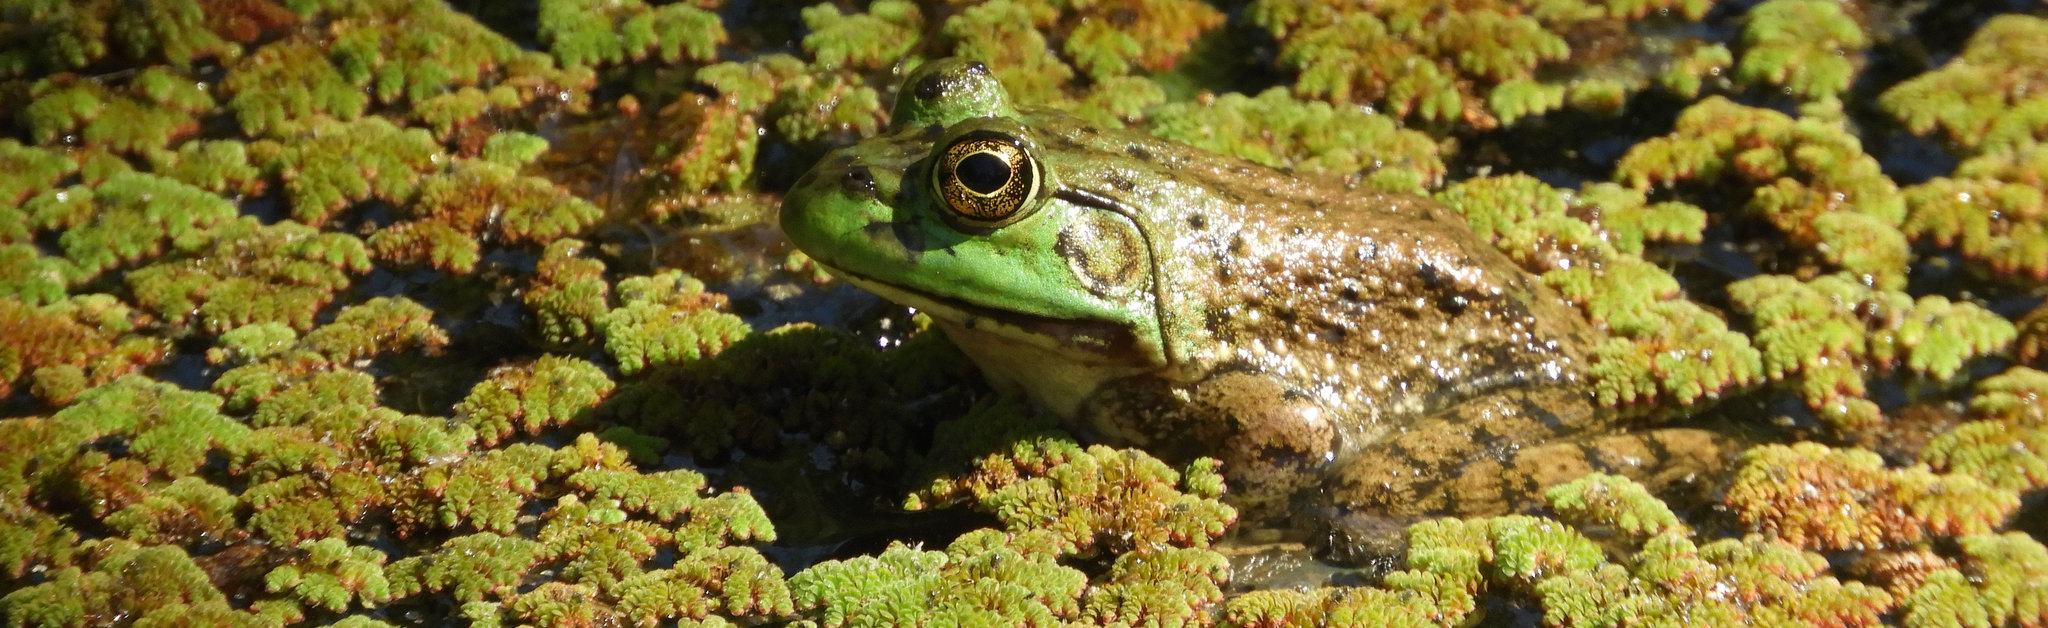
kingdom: Animalia
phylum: Chordata
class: Amphibia
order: Anura
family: Ranidae
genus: Lithobates
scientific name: Lithobates catesbeianus
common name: American bullfrog
